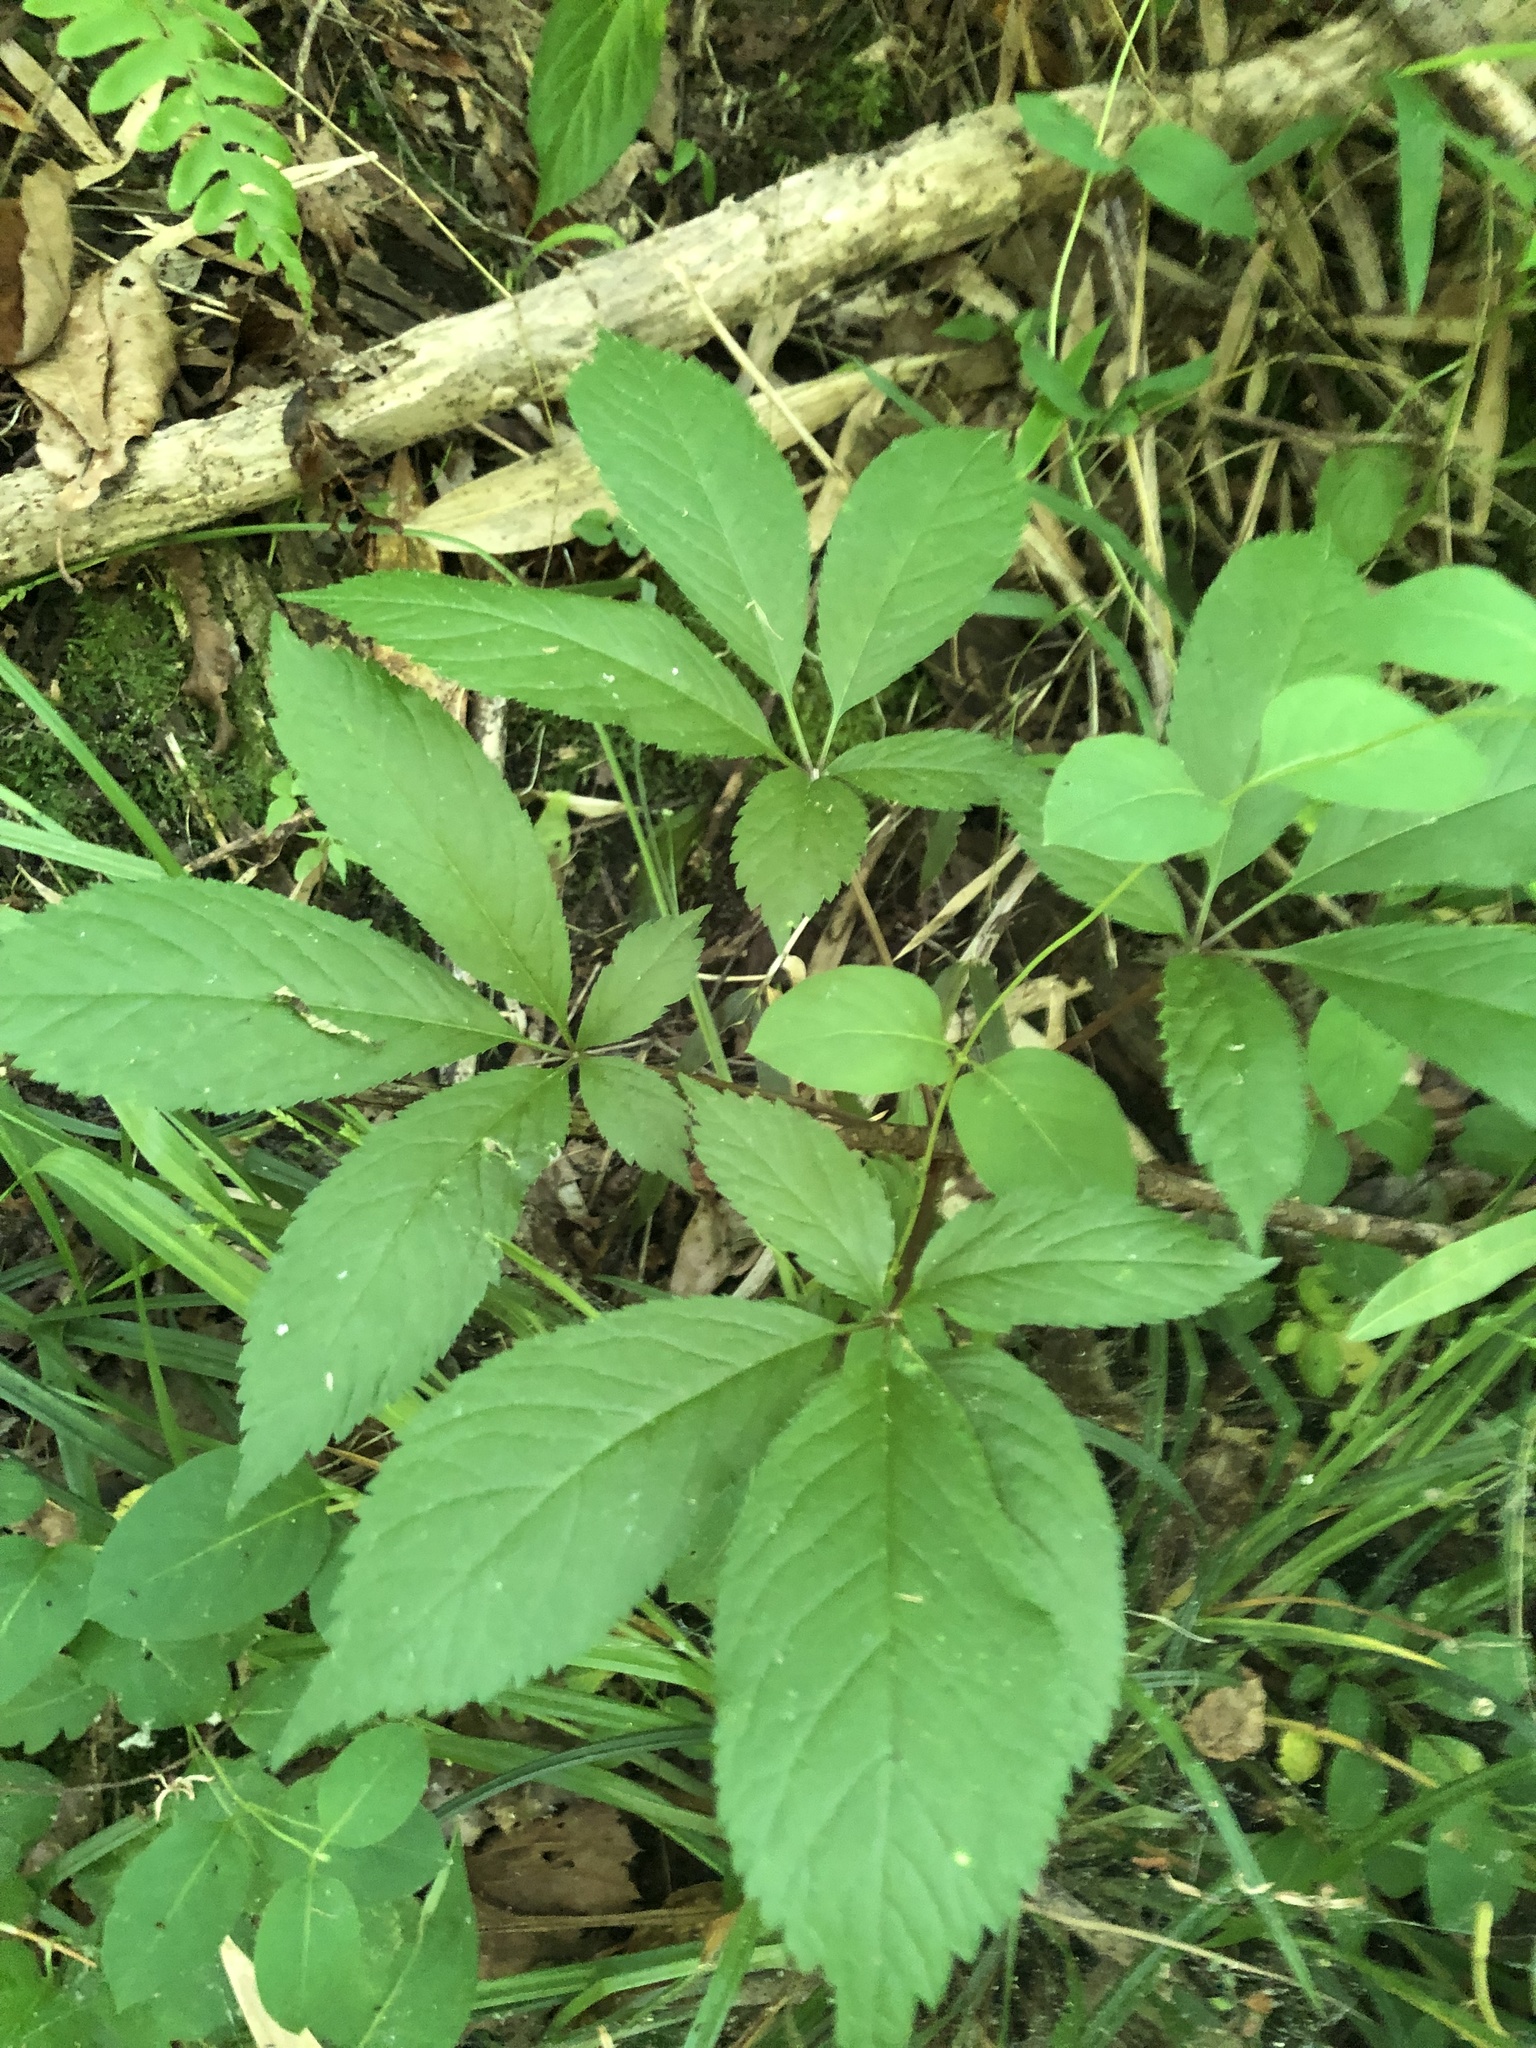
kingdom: Plantae
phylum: Tracheophyta
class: Magnoliopsida
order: Apiales
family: Araliaceae
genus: Panax
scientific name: Panax quinquefolius
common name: American ginseng
